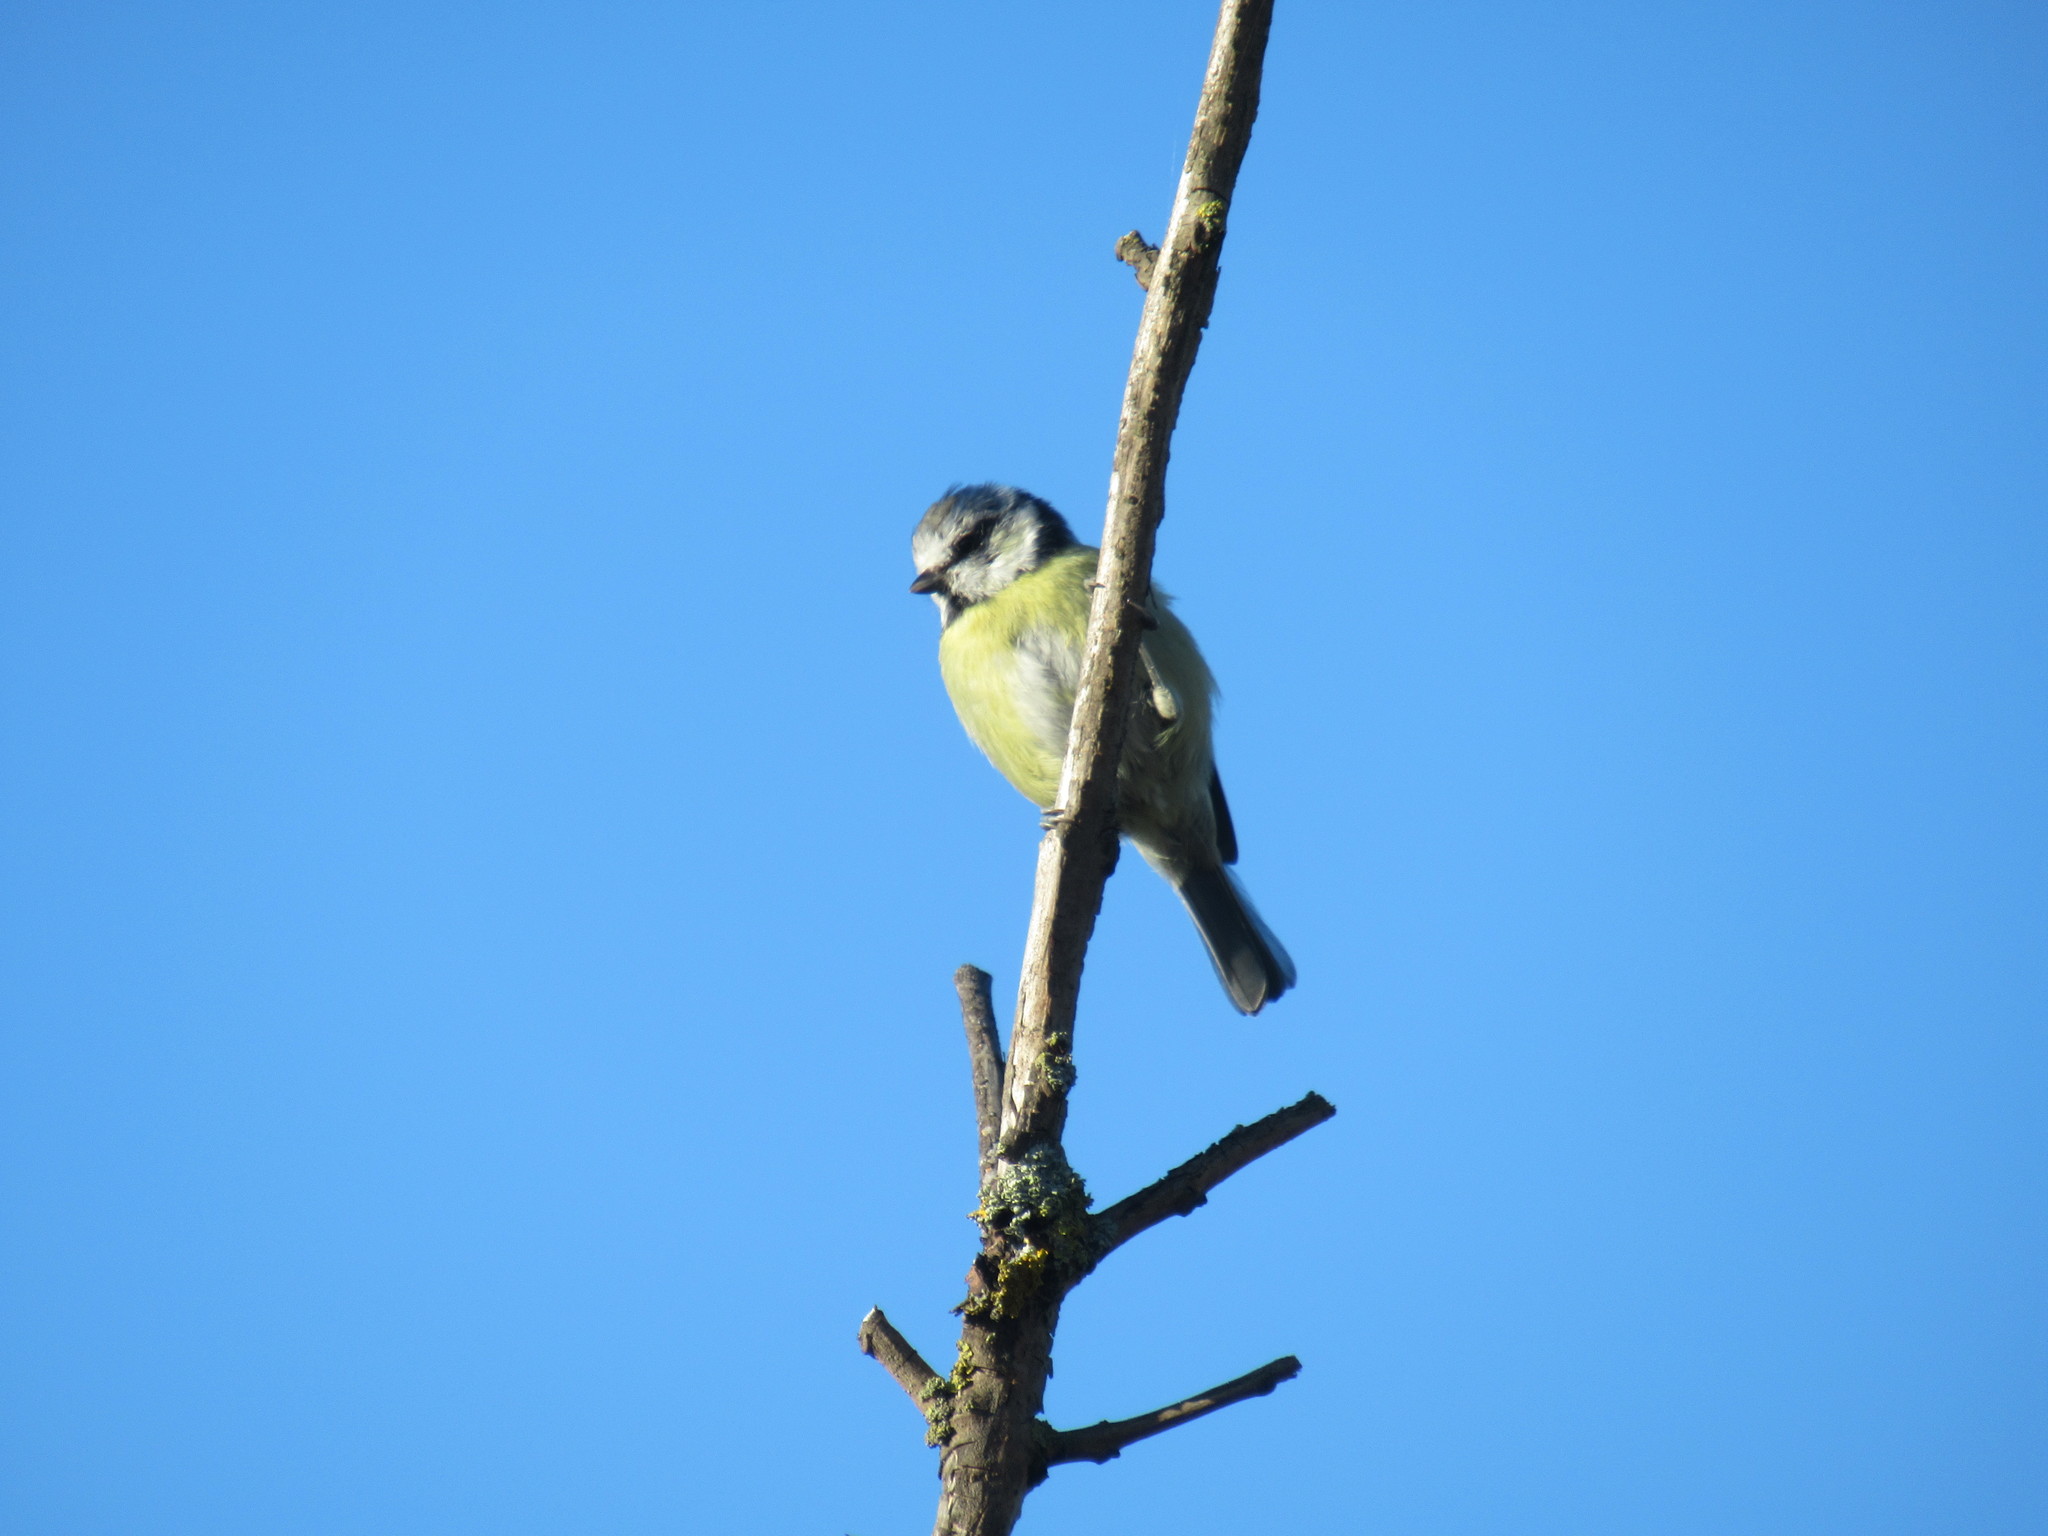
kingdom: Animalia
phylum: Chordata
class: Aves
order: Passeriformes
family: Paridae
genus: Cyanistes
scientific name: Cyanistes caeruleus
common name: Eurasian blue tit
